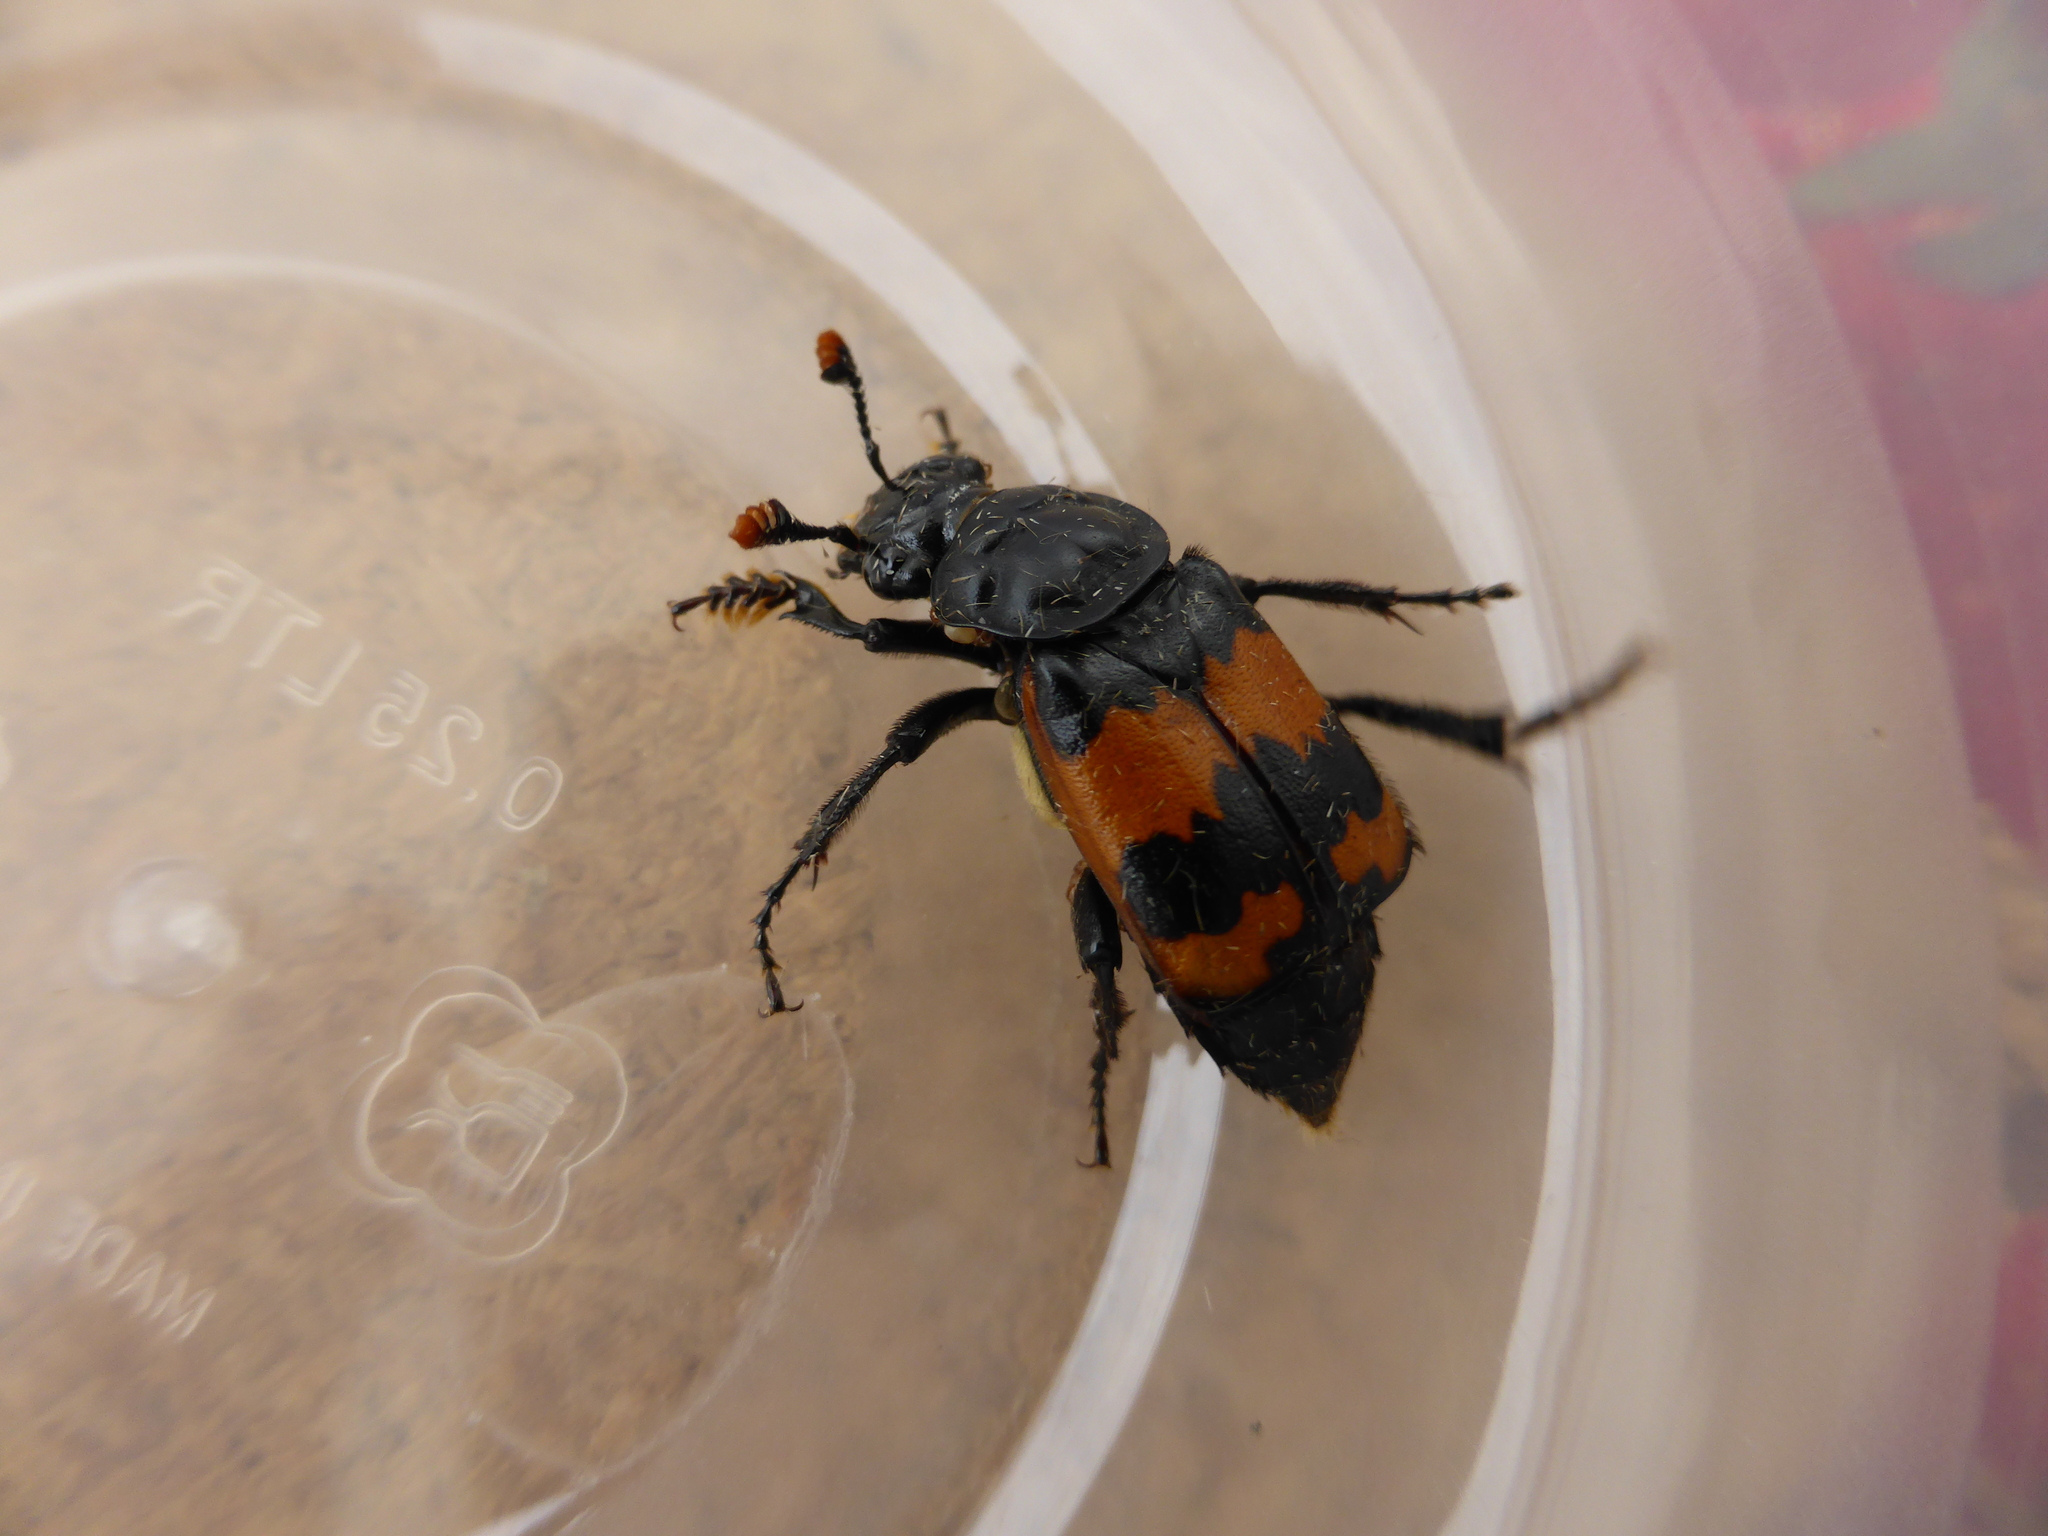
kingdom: Animalia
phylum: Arthropoda
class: Insecta
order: Coleoptera
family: Staphylinidae
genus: Nicrophorus
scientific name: Nicrophorus investigator
